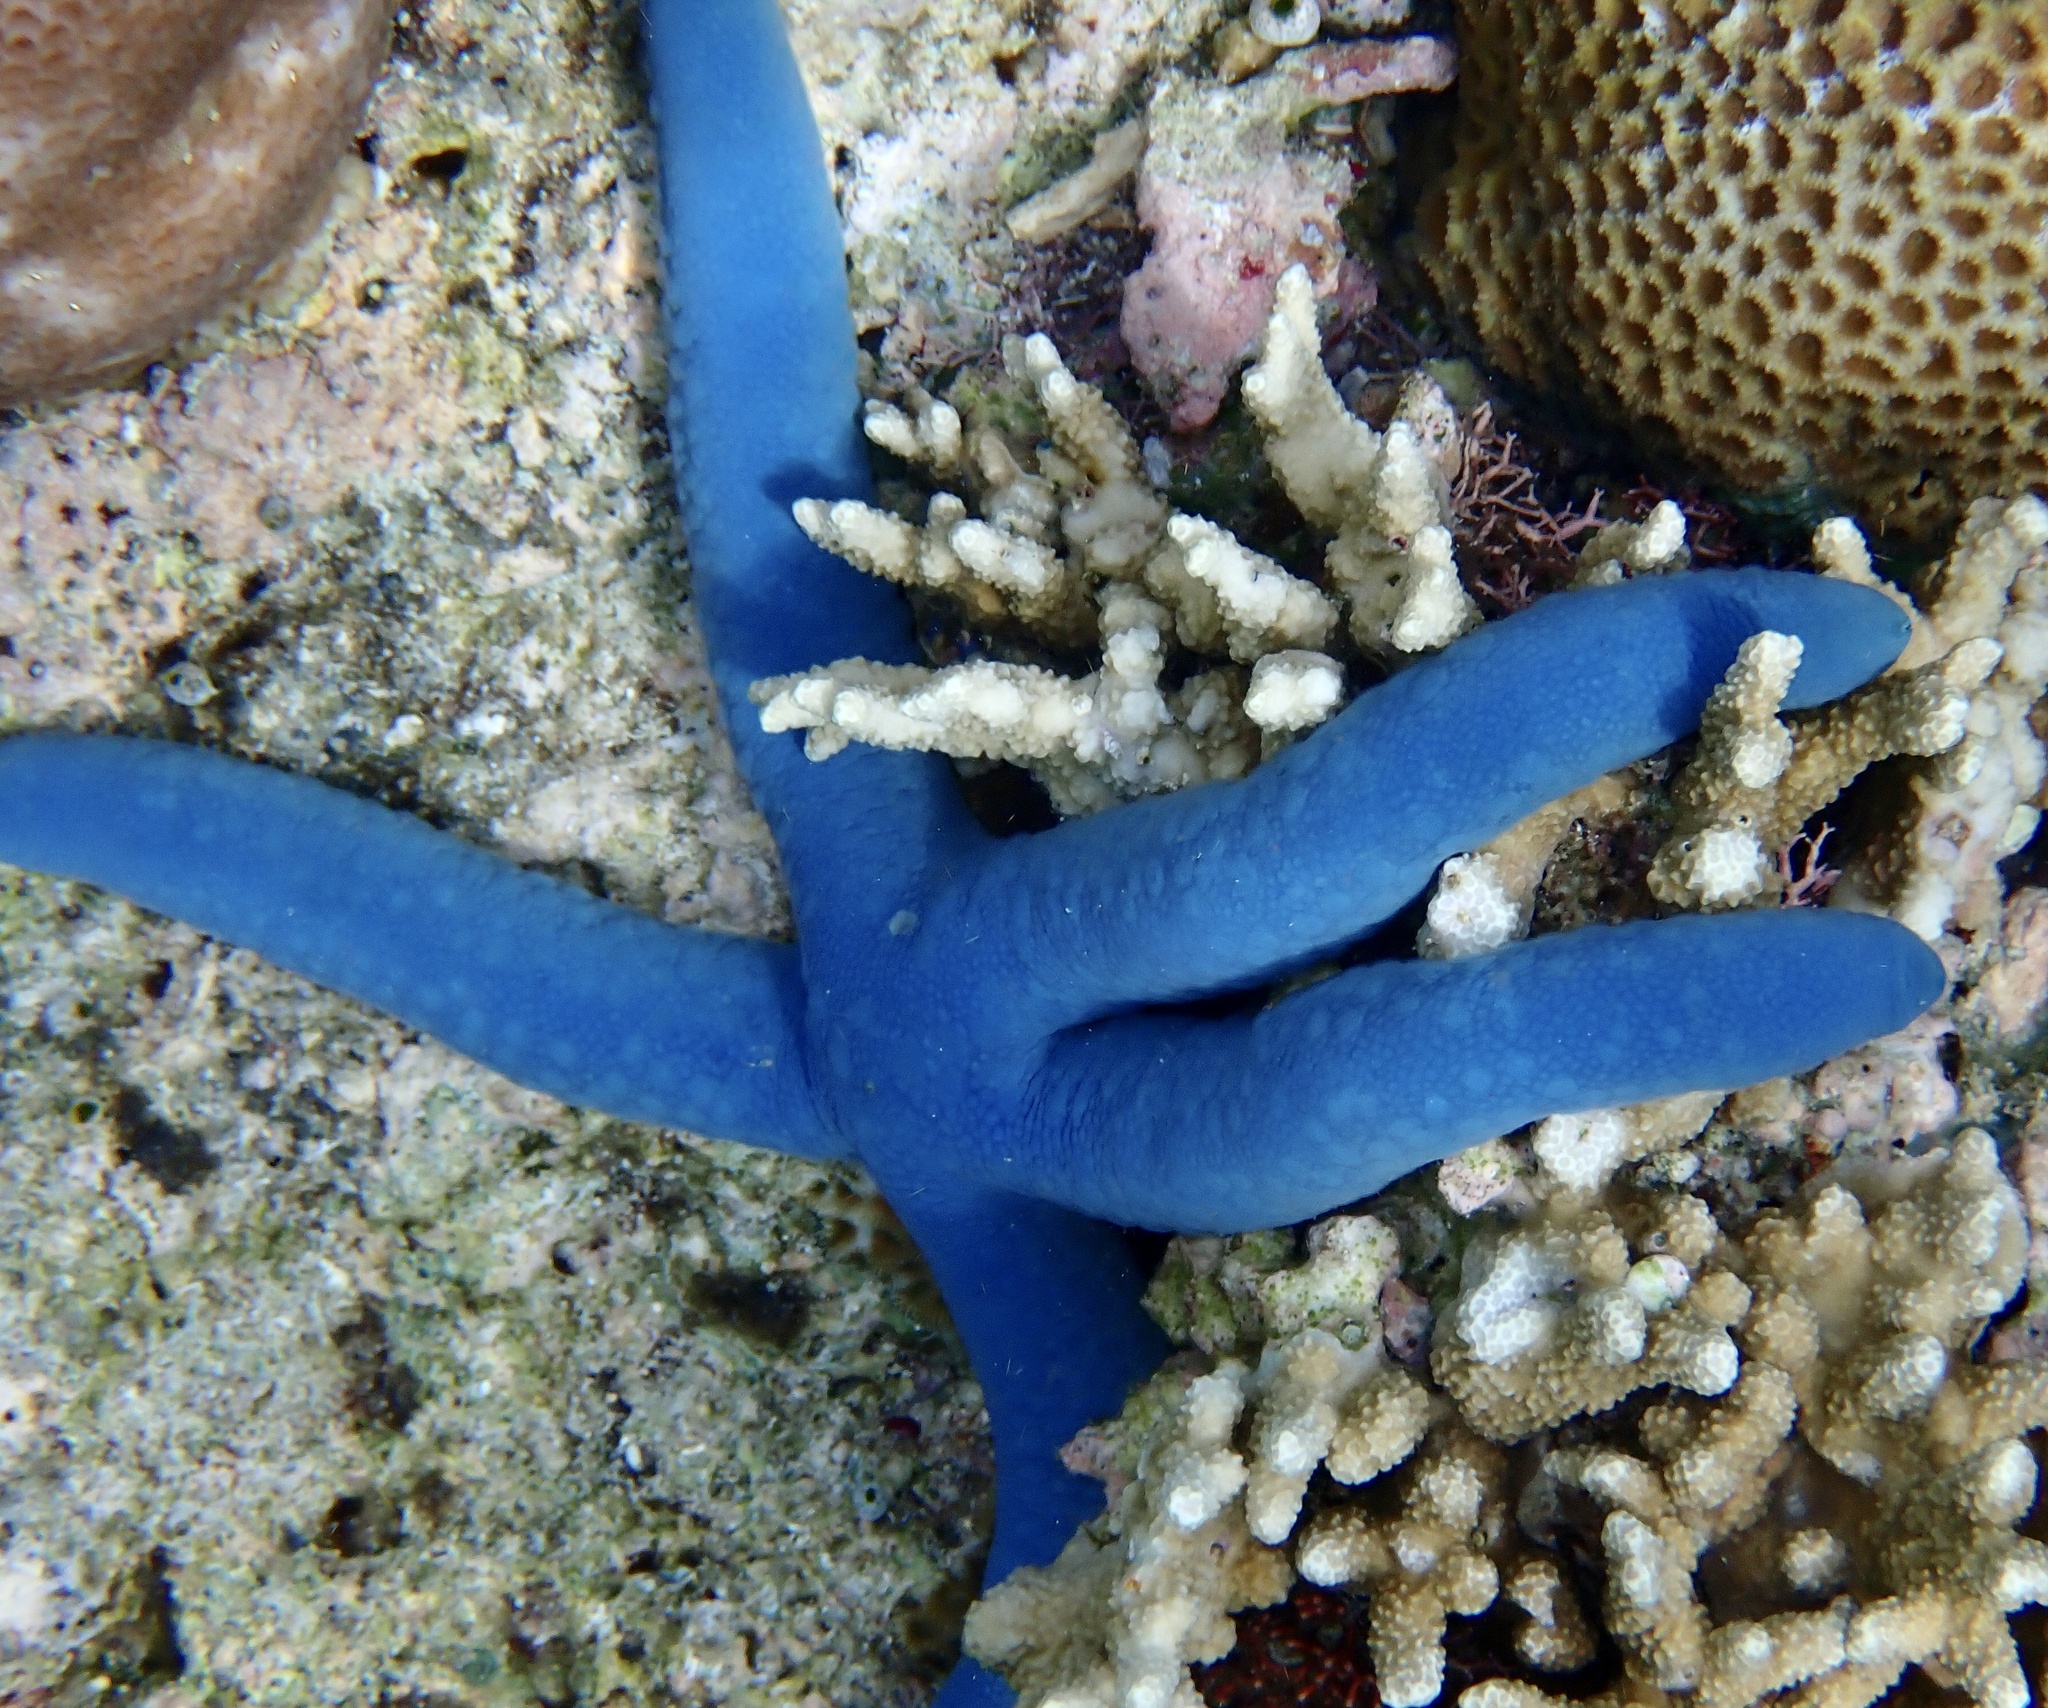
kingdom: Animalia
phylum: Echinodermata
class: Asteroidea
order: Valvatida
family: Ophidiasteridae
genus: Linckia
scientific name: Linckia laevigata
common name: Azure sea star
